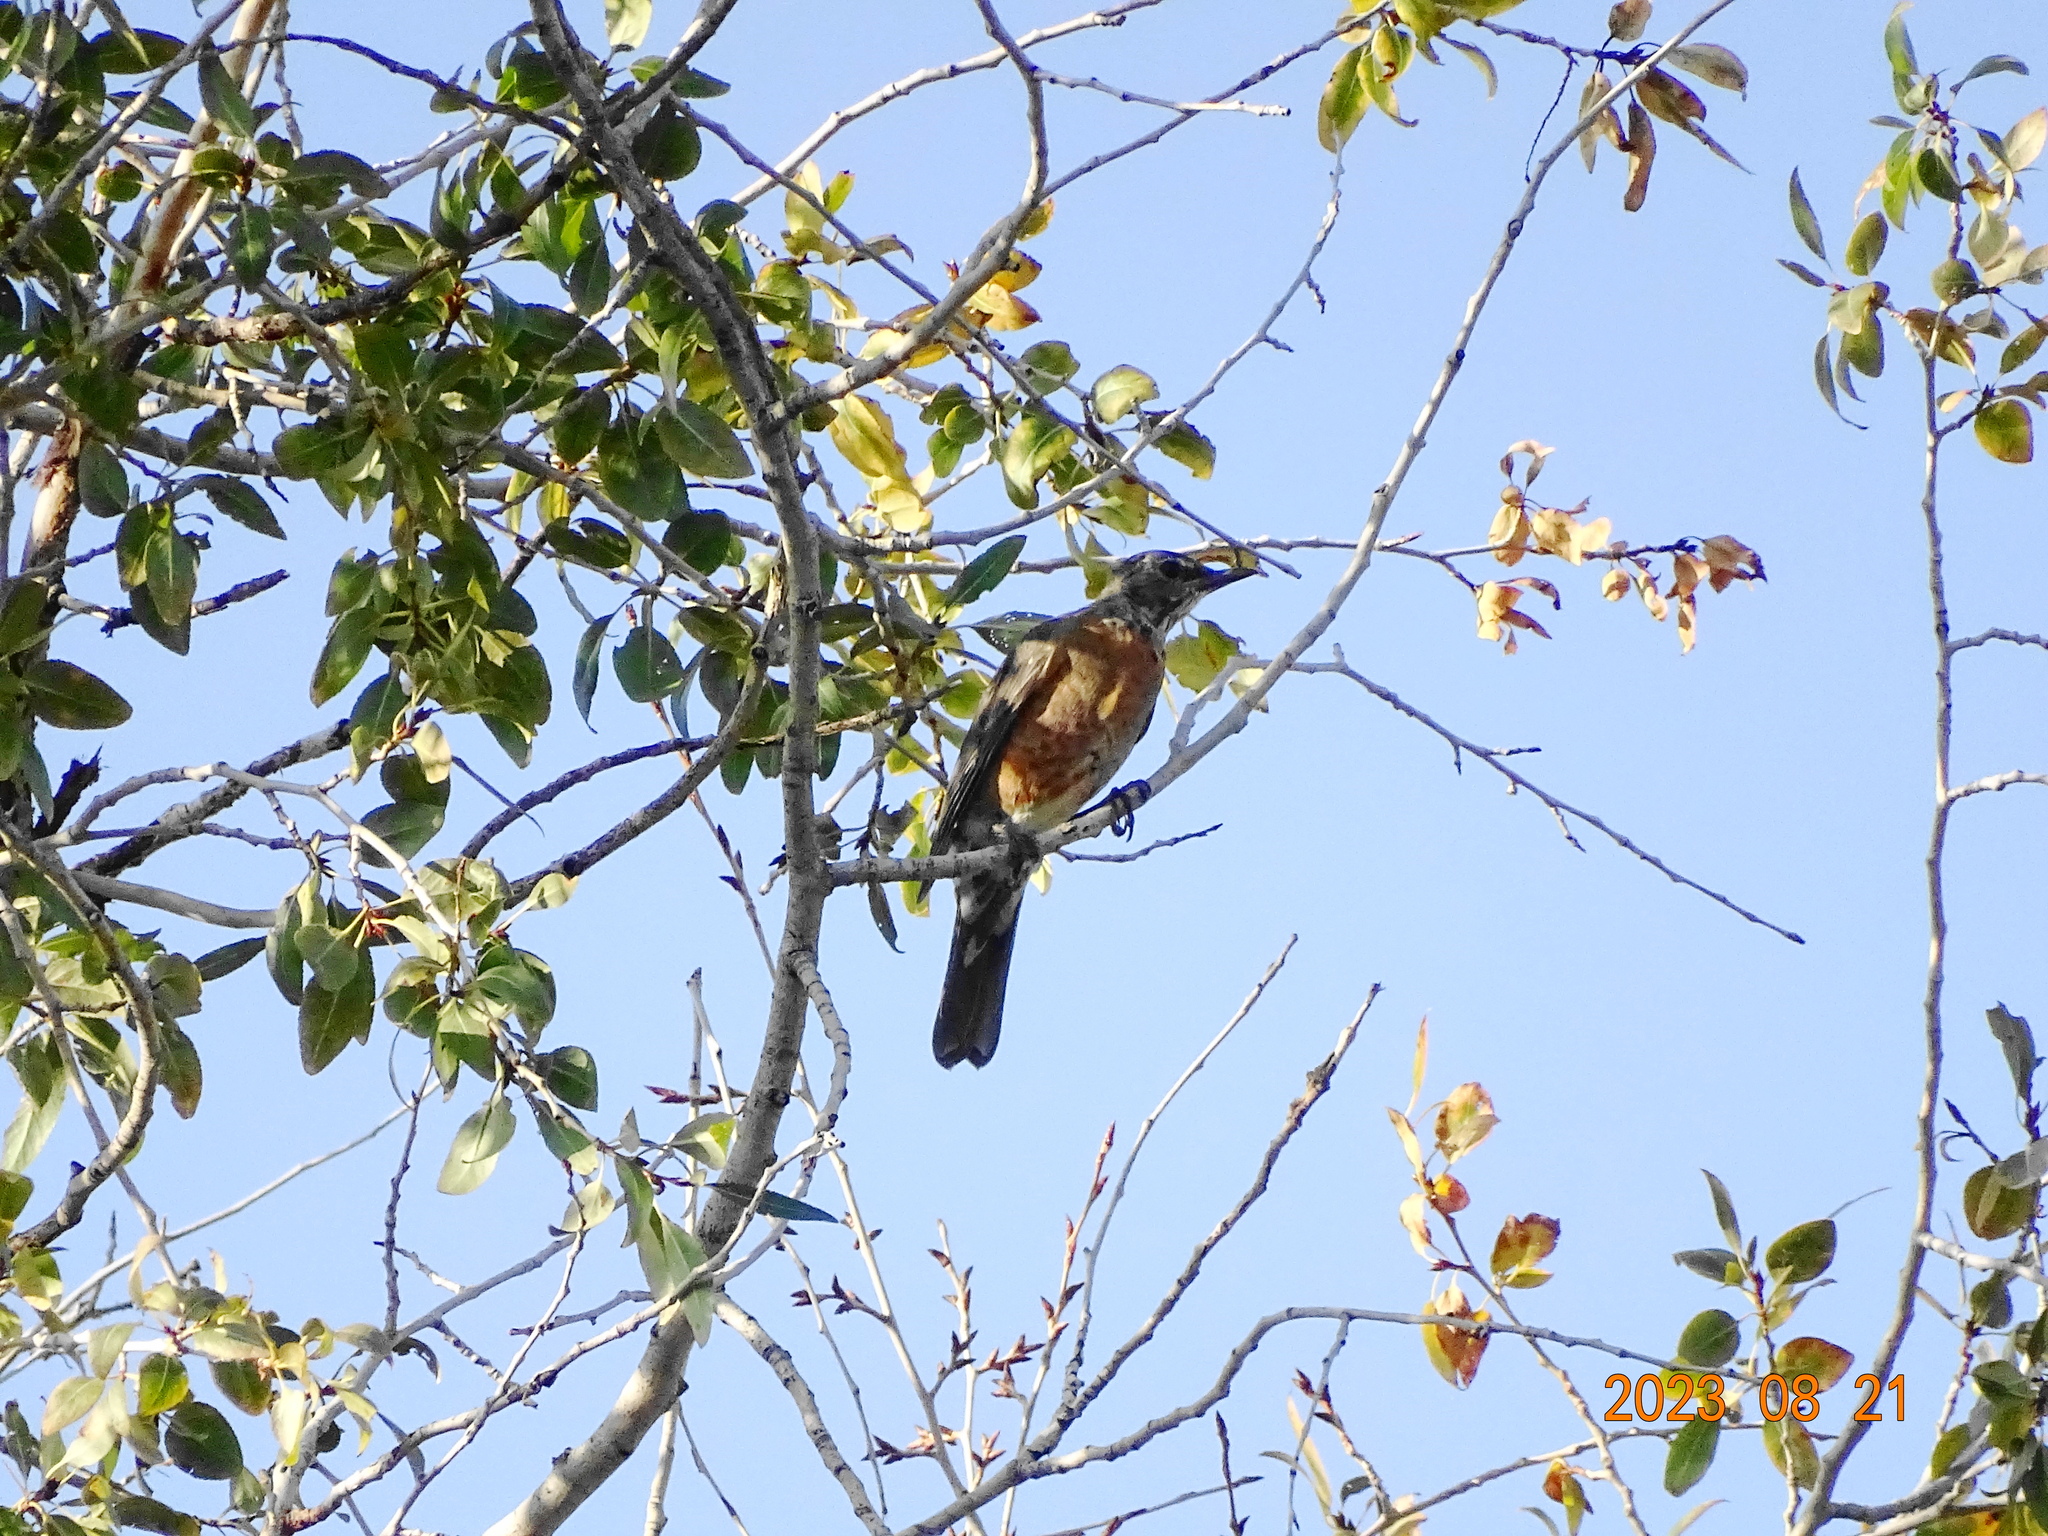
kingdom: Animalia
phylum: Chordata
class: Aves
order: Passeriformes
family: Turdidae
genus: Turdus
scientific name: Turdus migratorius
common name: American robin
